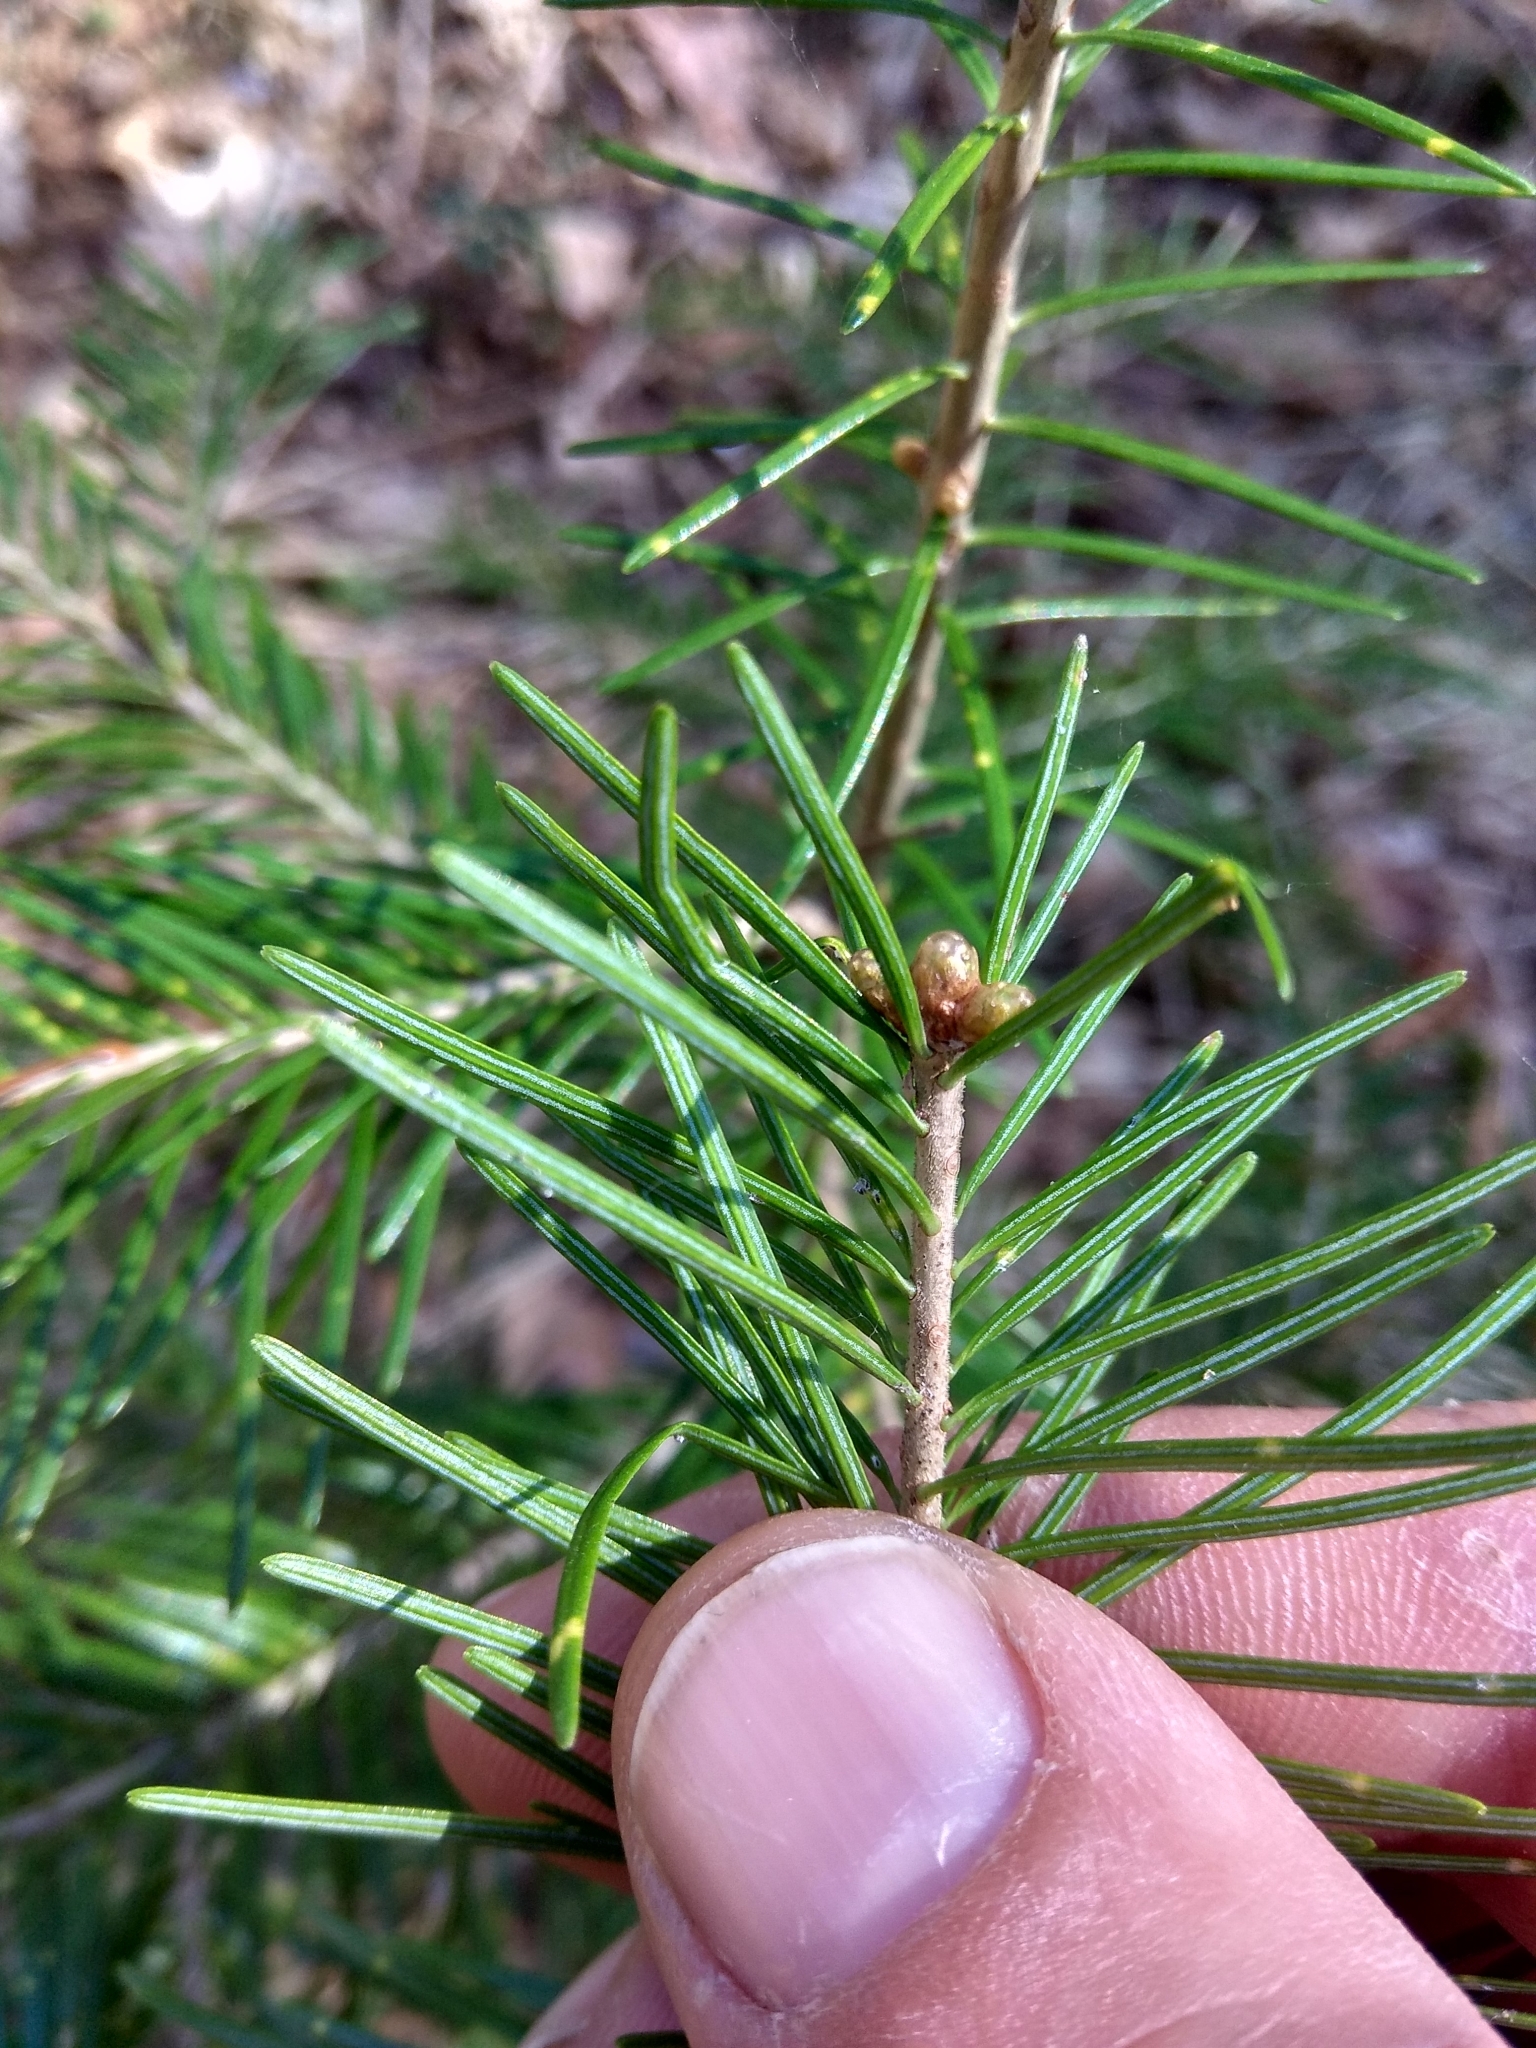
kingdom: Plantae
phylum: Tracheophyta
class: Pinopsida
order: Pinales
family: Pinaceae
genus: Abies
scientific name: Abies sibirica
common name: Siberian fir
